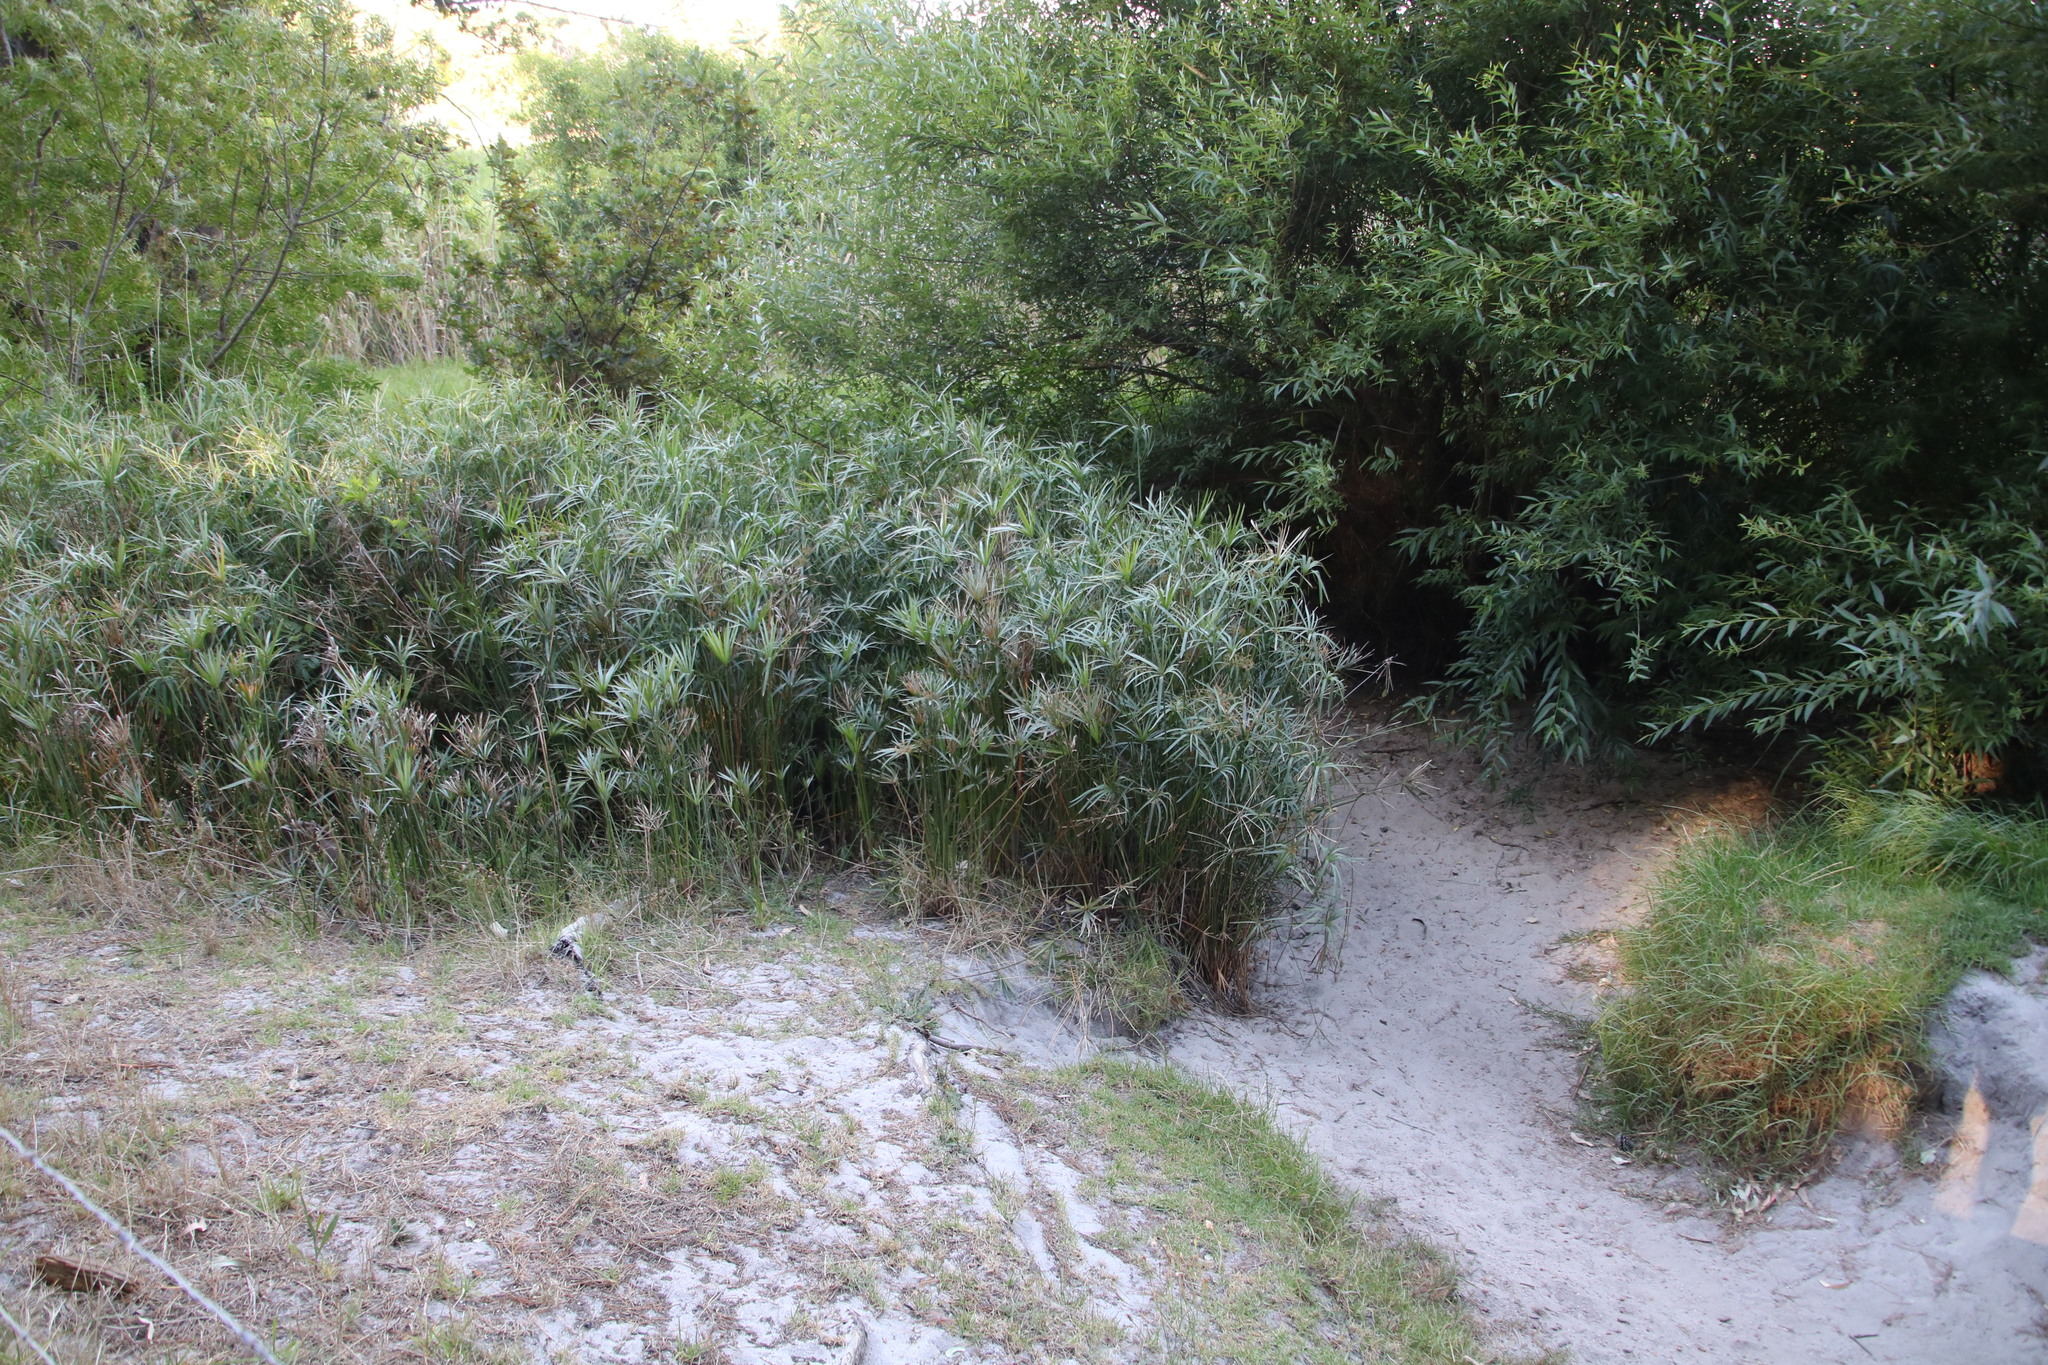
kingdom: Plantae
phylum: Tracheophyta
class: Liliopsida
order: Poales
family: Cyperaceae
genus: Cyperus
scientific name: Cyperus textilis
